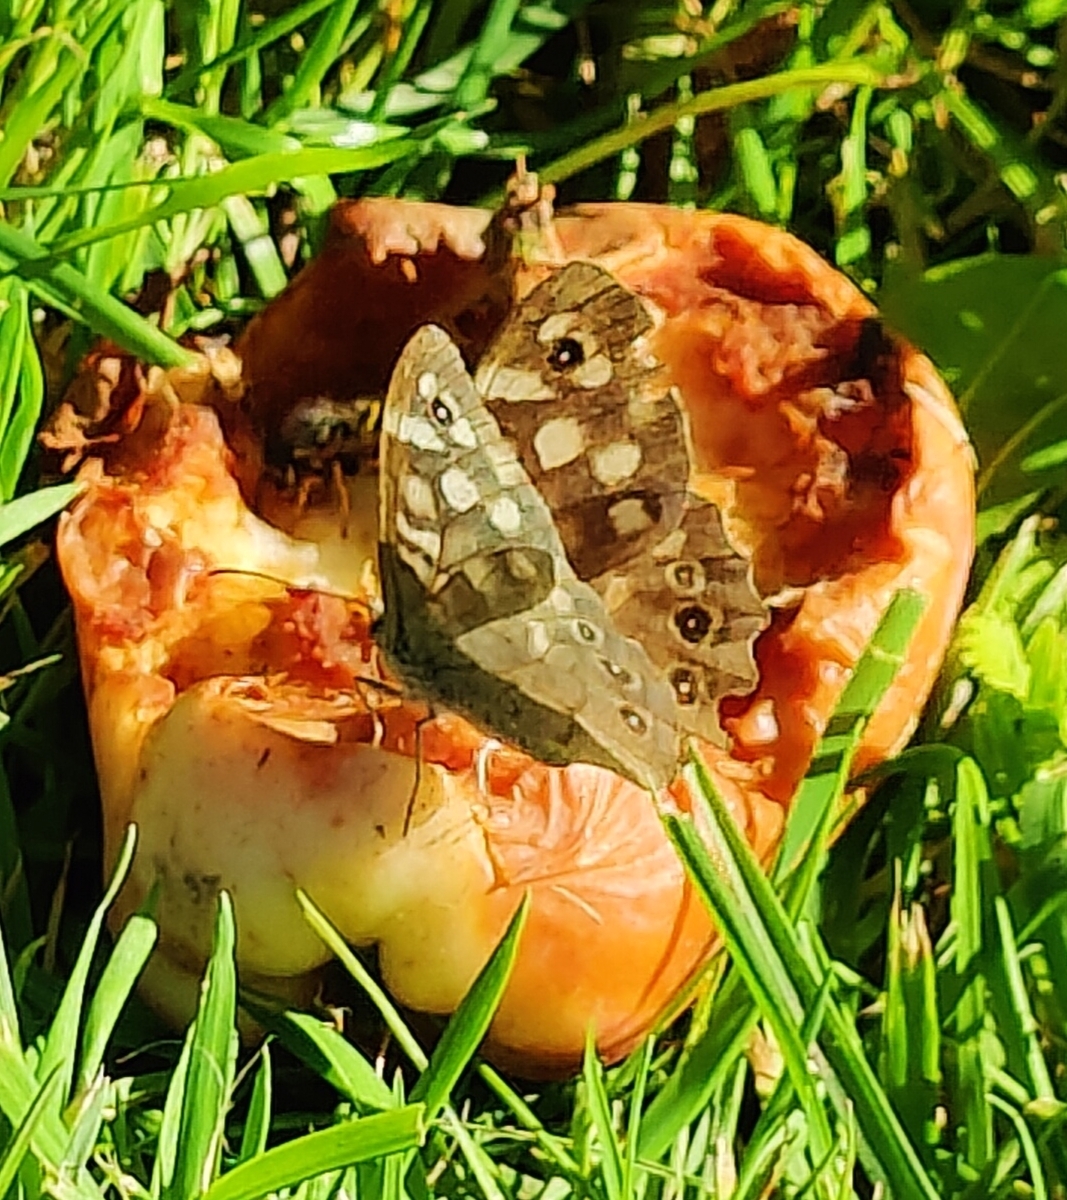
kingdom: Animalia
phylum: Arthropoda
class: Insecta
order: Lepidoptera
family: Nymphalidae
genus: Pararge
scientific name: Pararge aegeria
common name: Speckled wood
